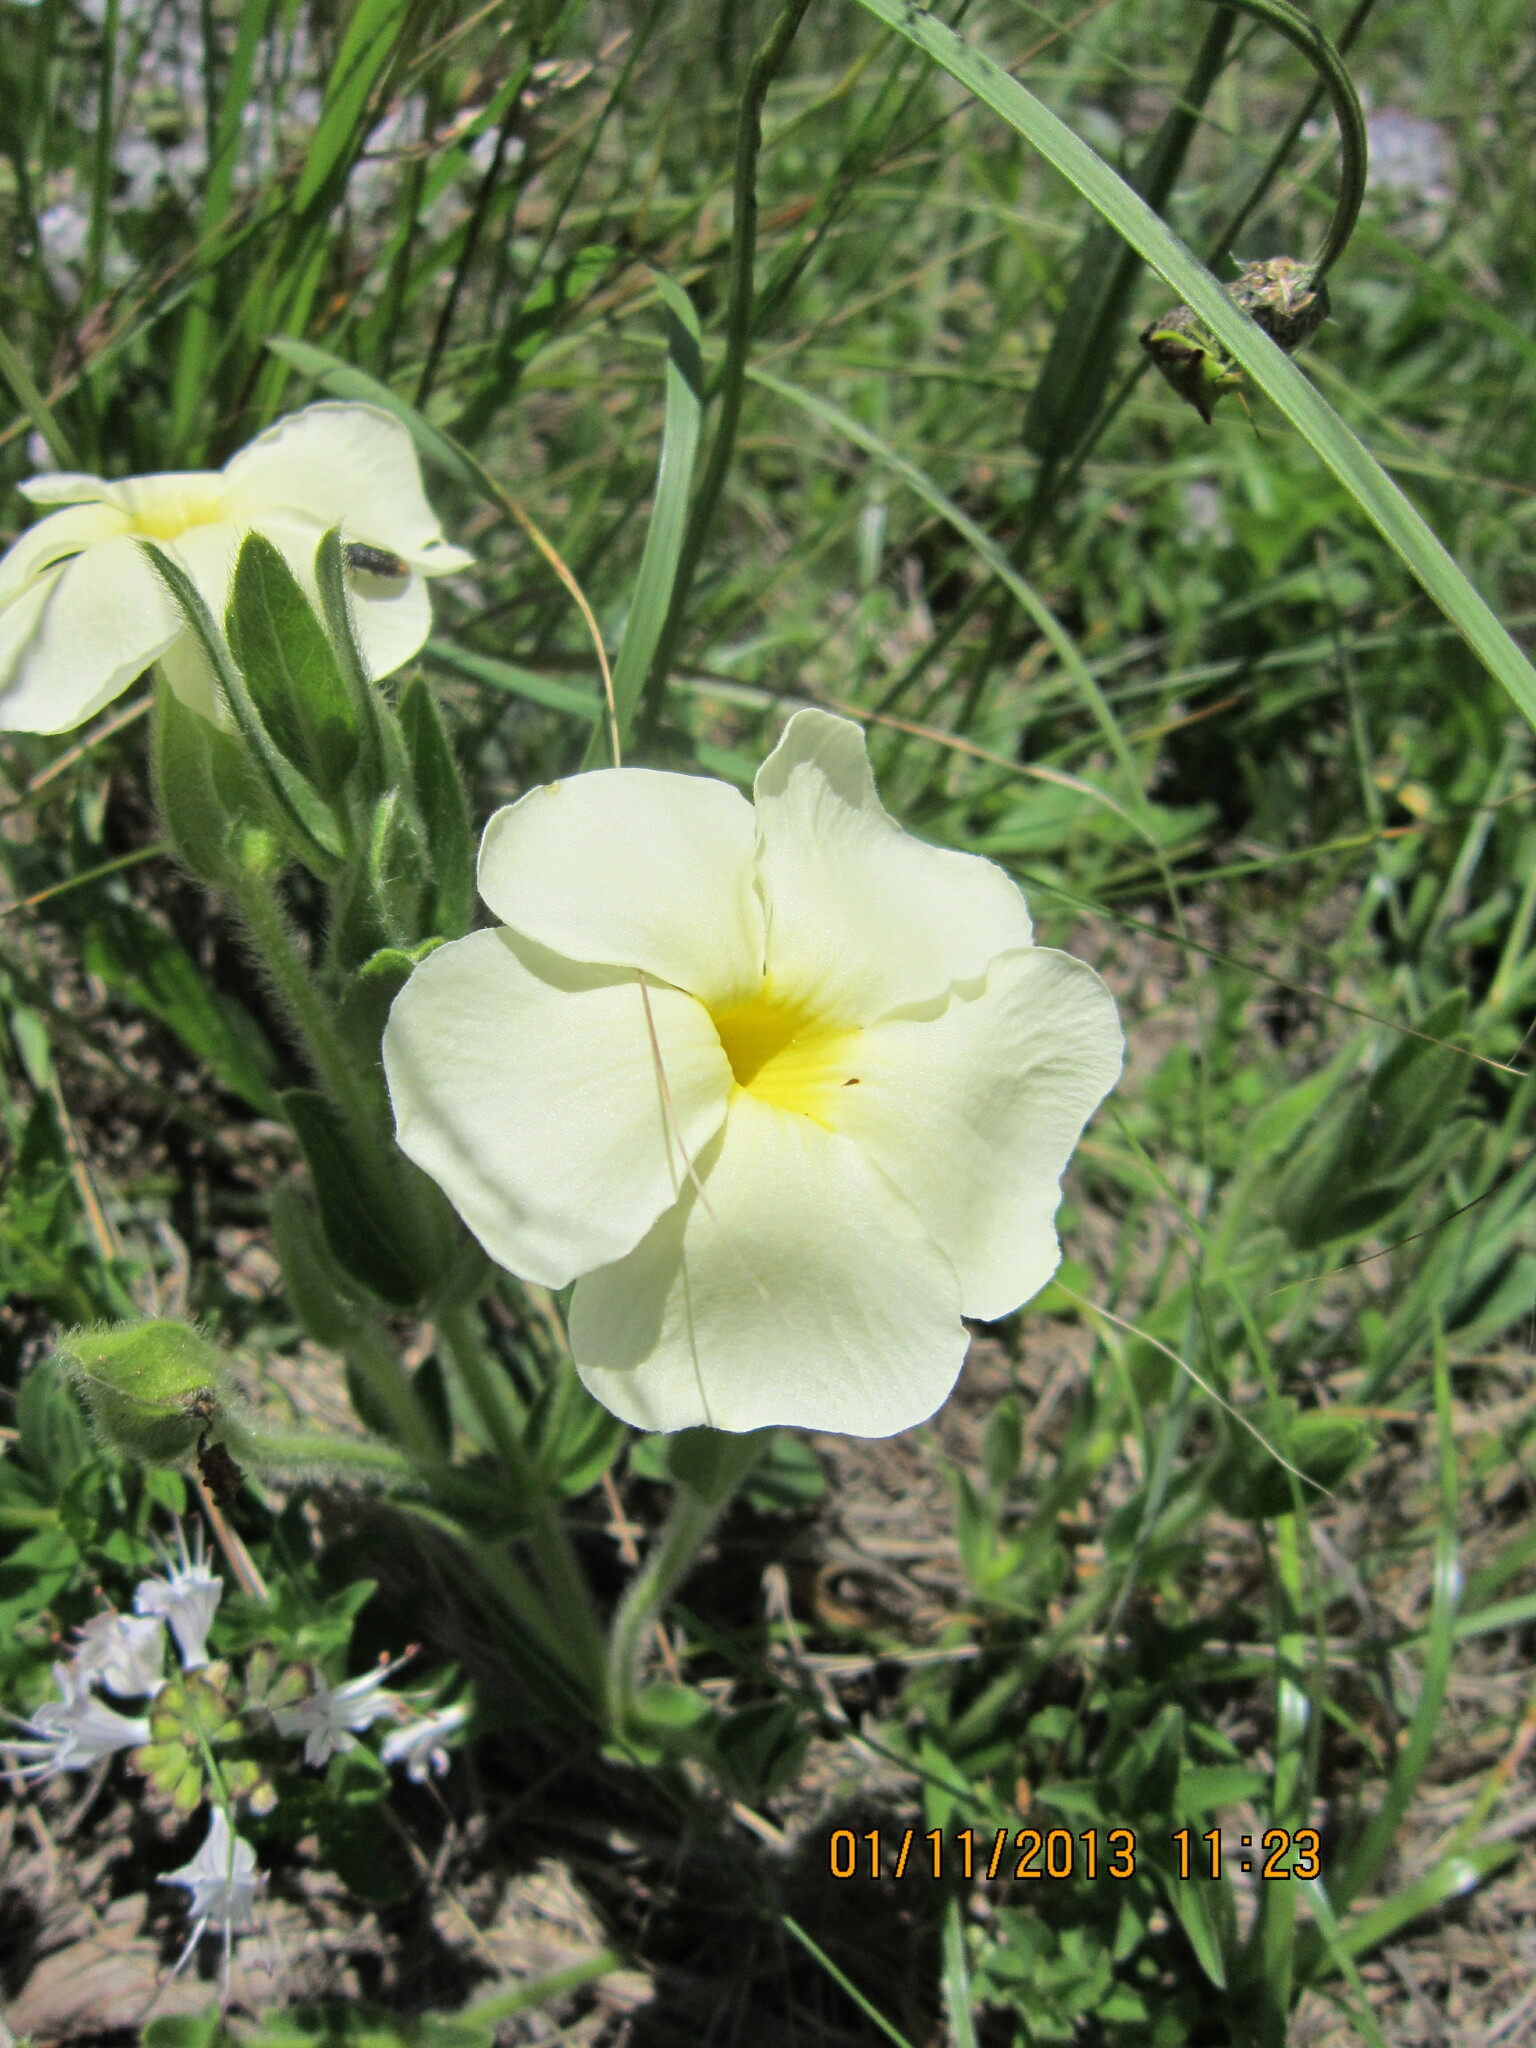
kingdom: Plantae
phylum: Tracheophyta
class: Magnoliopsida
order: Lamiales
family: Acanthaceae
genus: Thunbergia
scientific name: Thunbergia atriplicifolia
